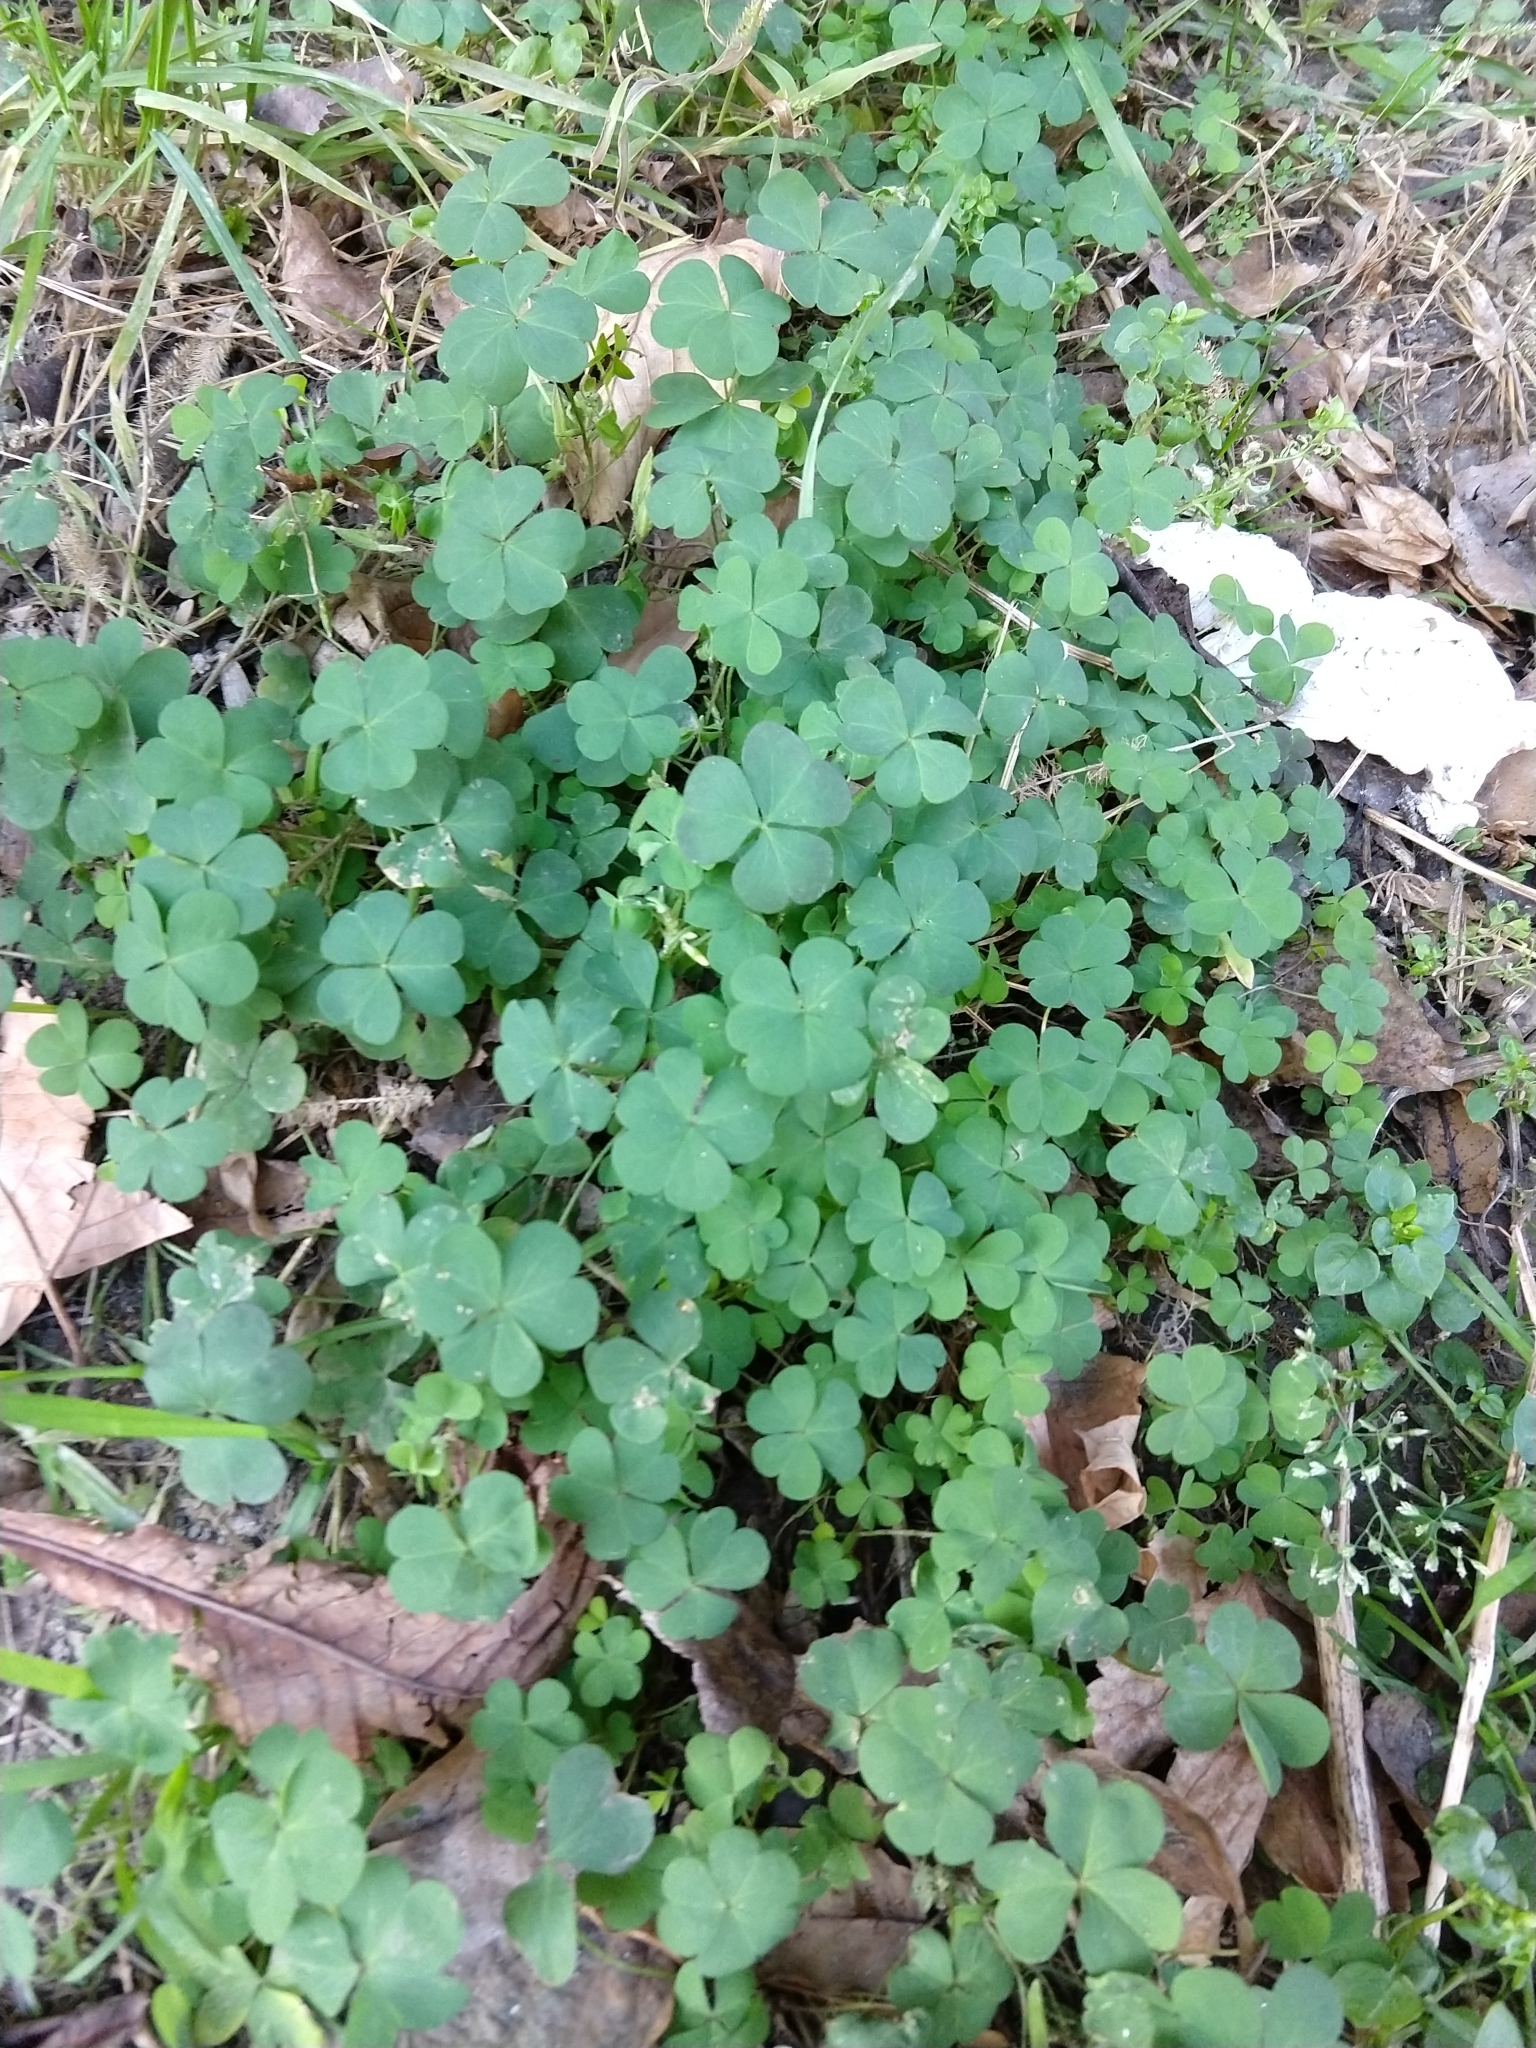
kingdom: Plantae
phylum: Tracheophyta
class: Magnoliopsida
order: Oxalidales
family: Oxalidaceae
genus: Oxalis
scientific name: Oxalis corniculata
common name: Procumbent yellow-sorrel
